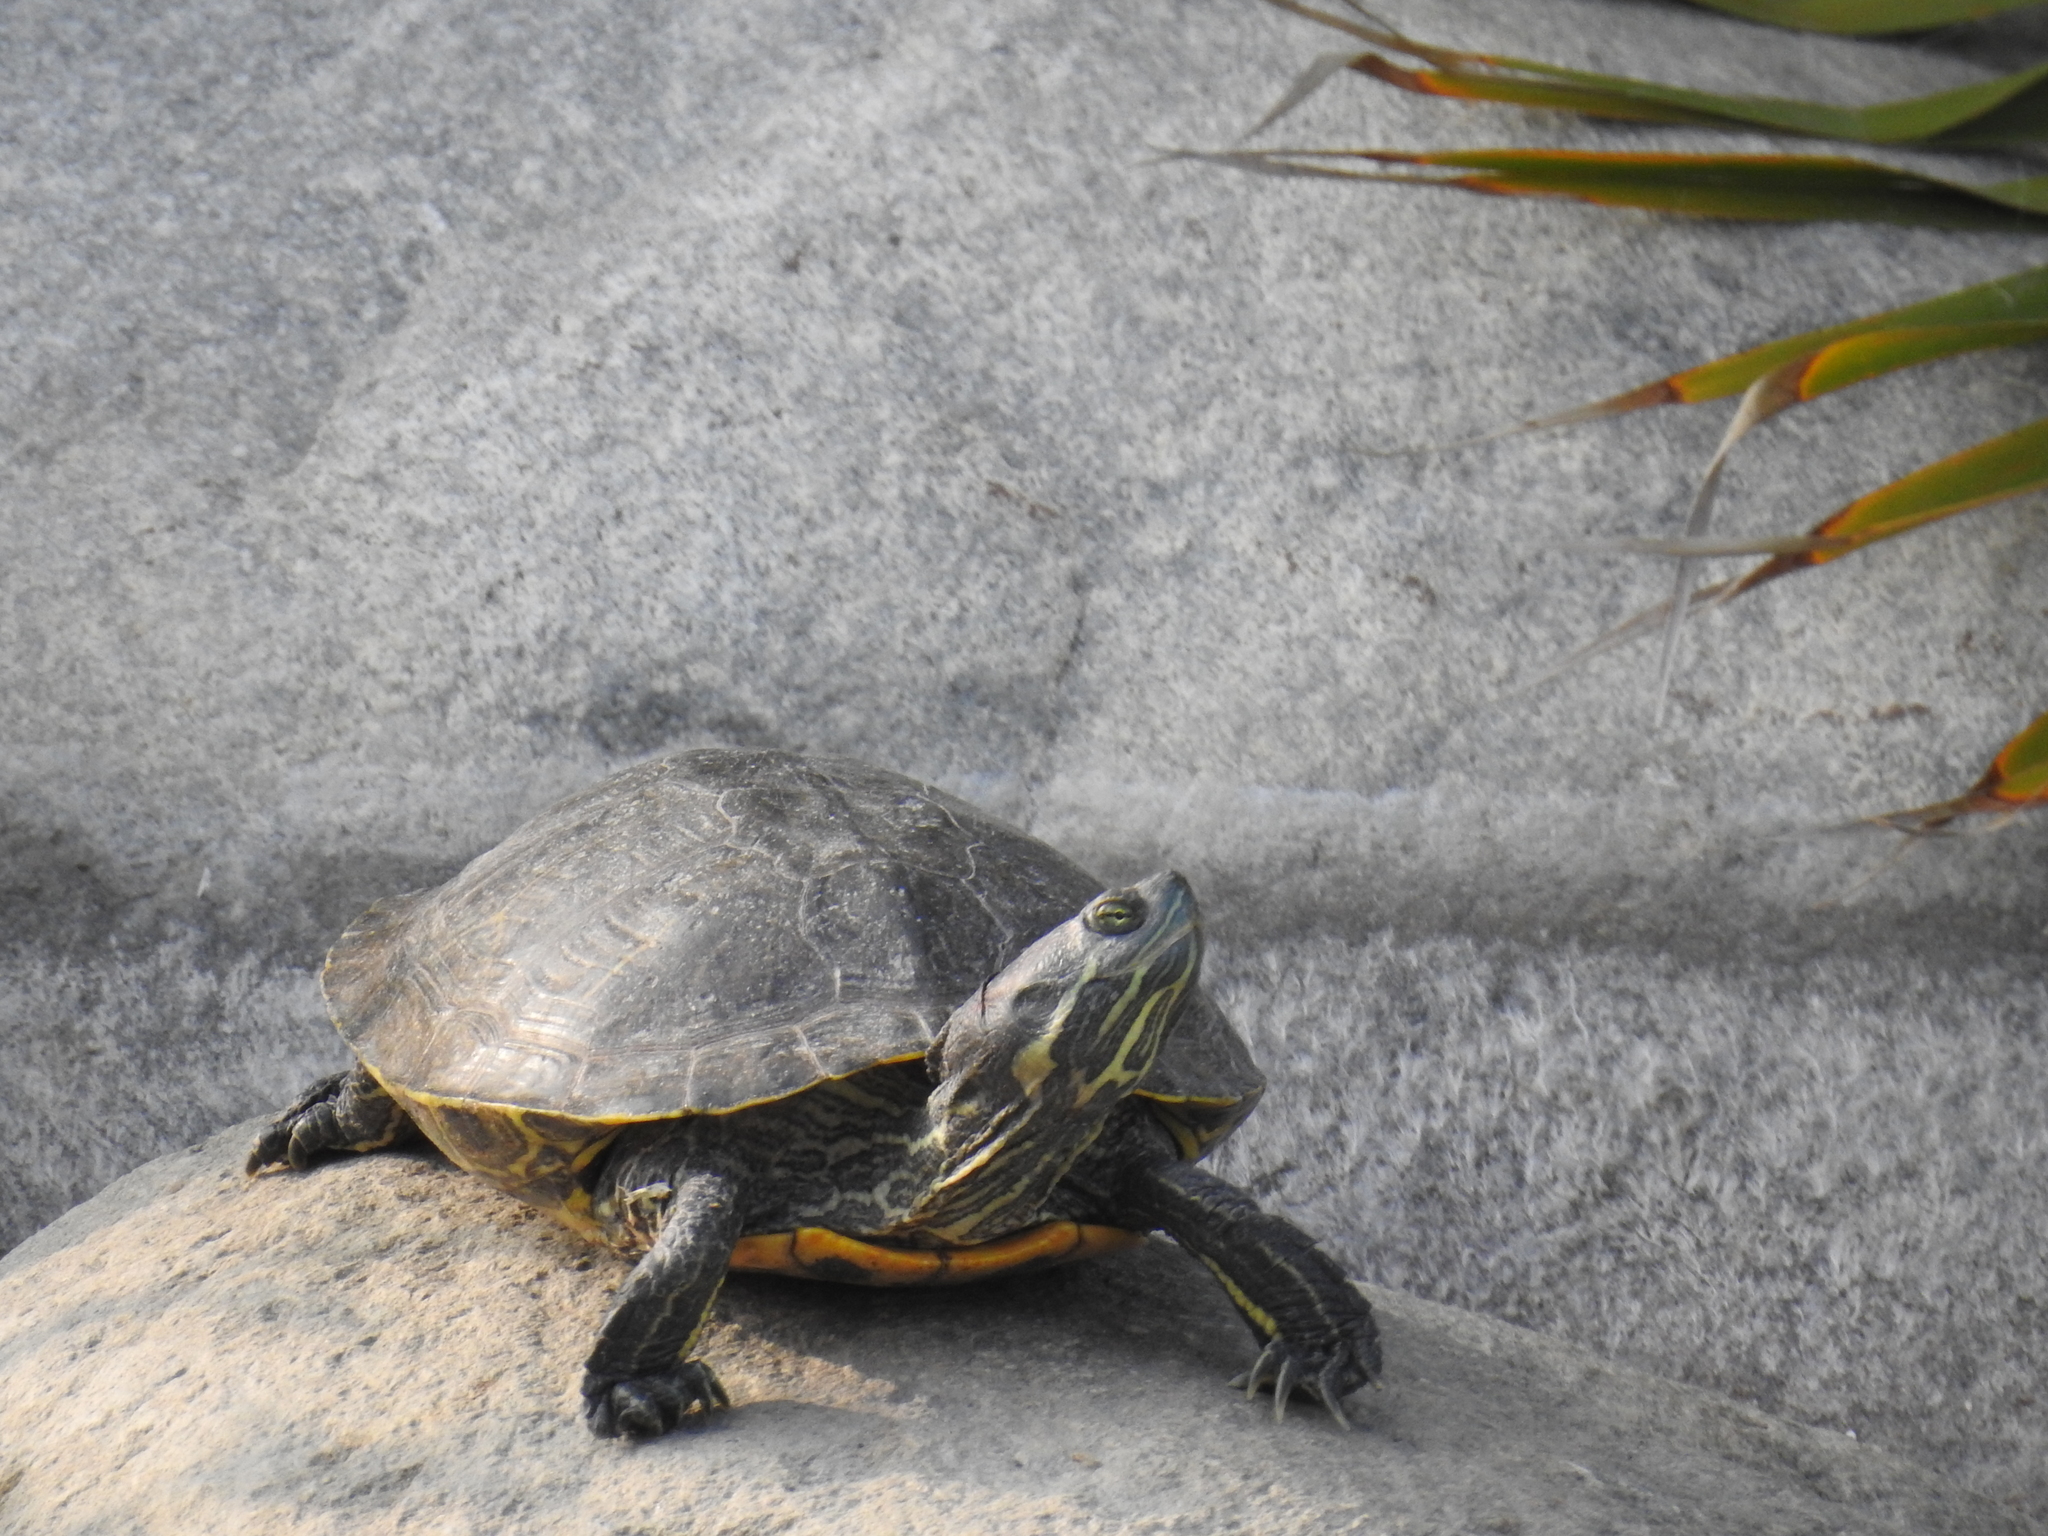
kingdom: Animalia
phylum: Chordata
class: Testudines
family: Emydidae
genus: Trachemys
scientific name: Trachemys scripta
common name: Slider
